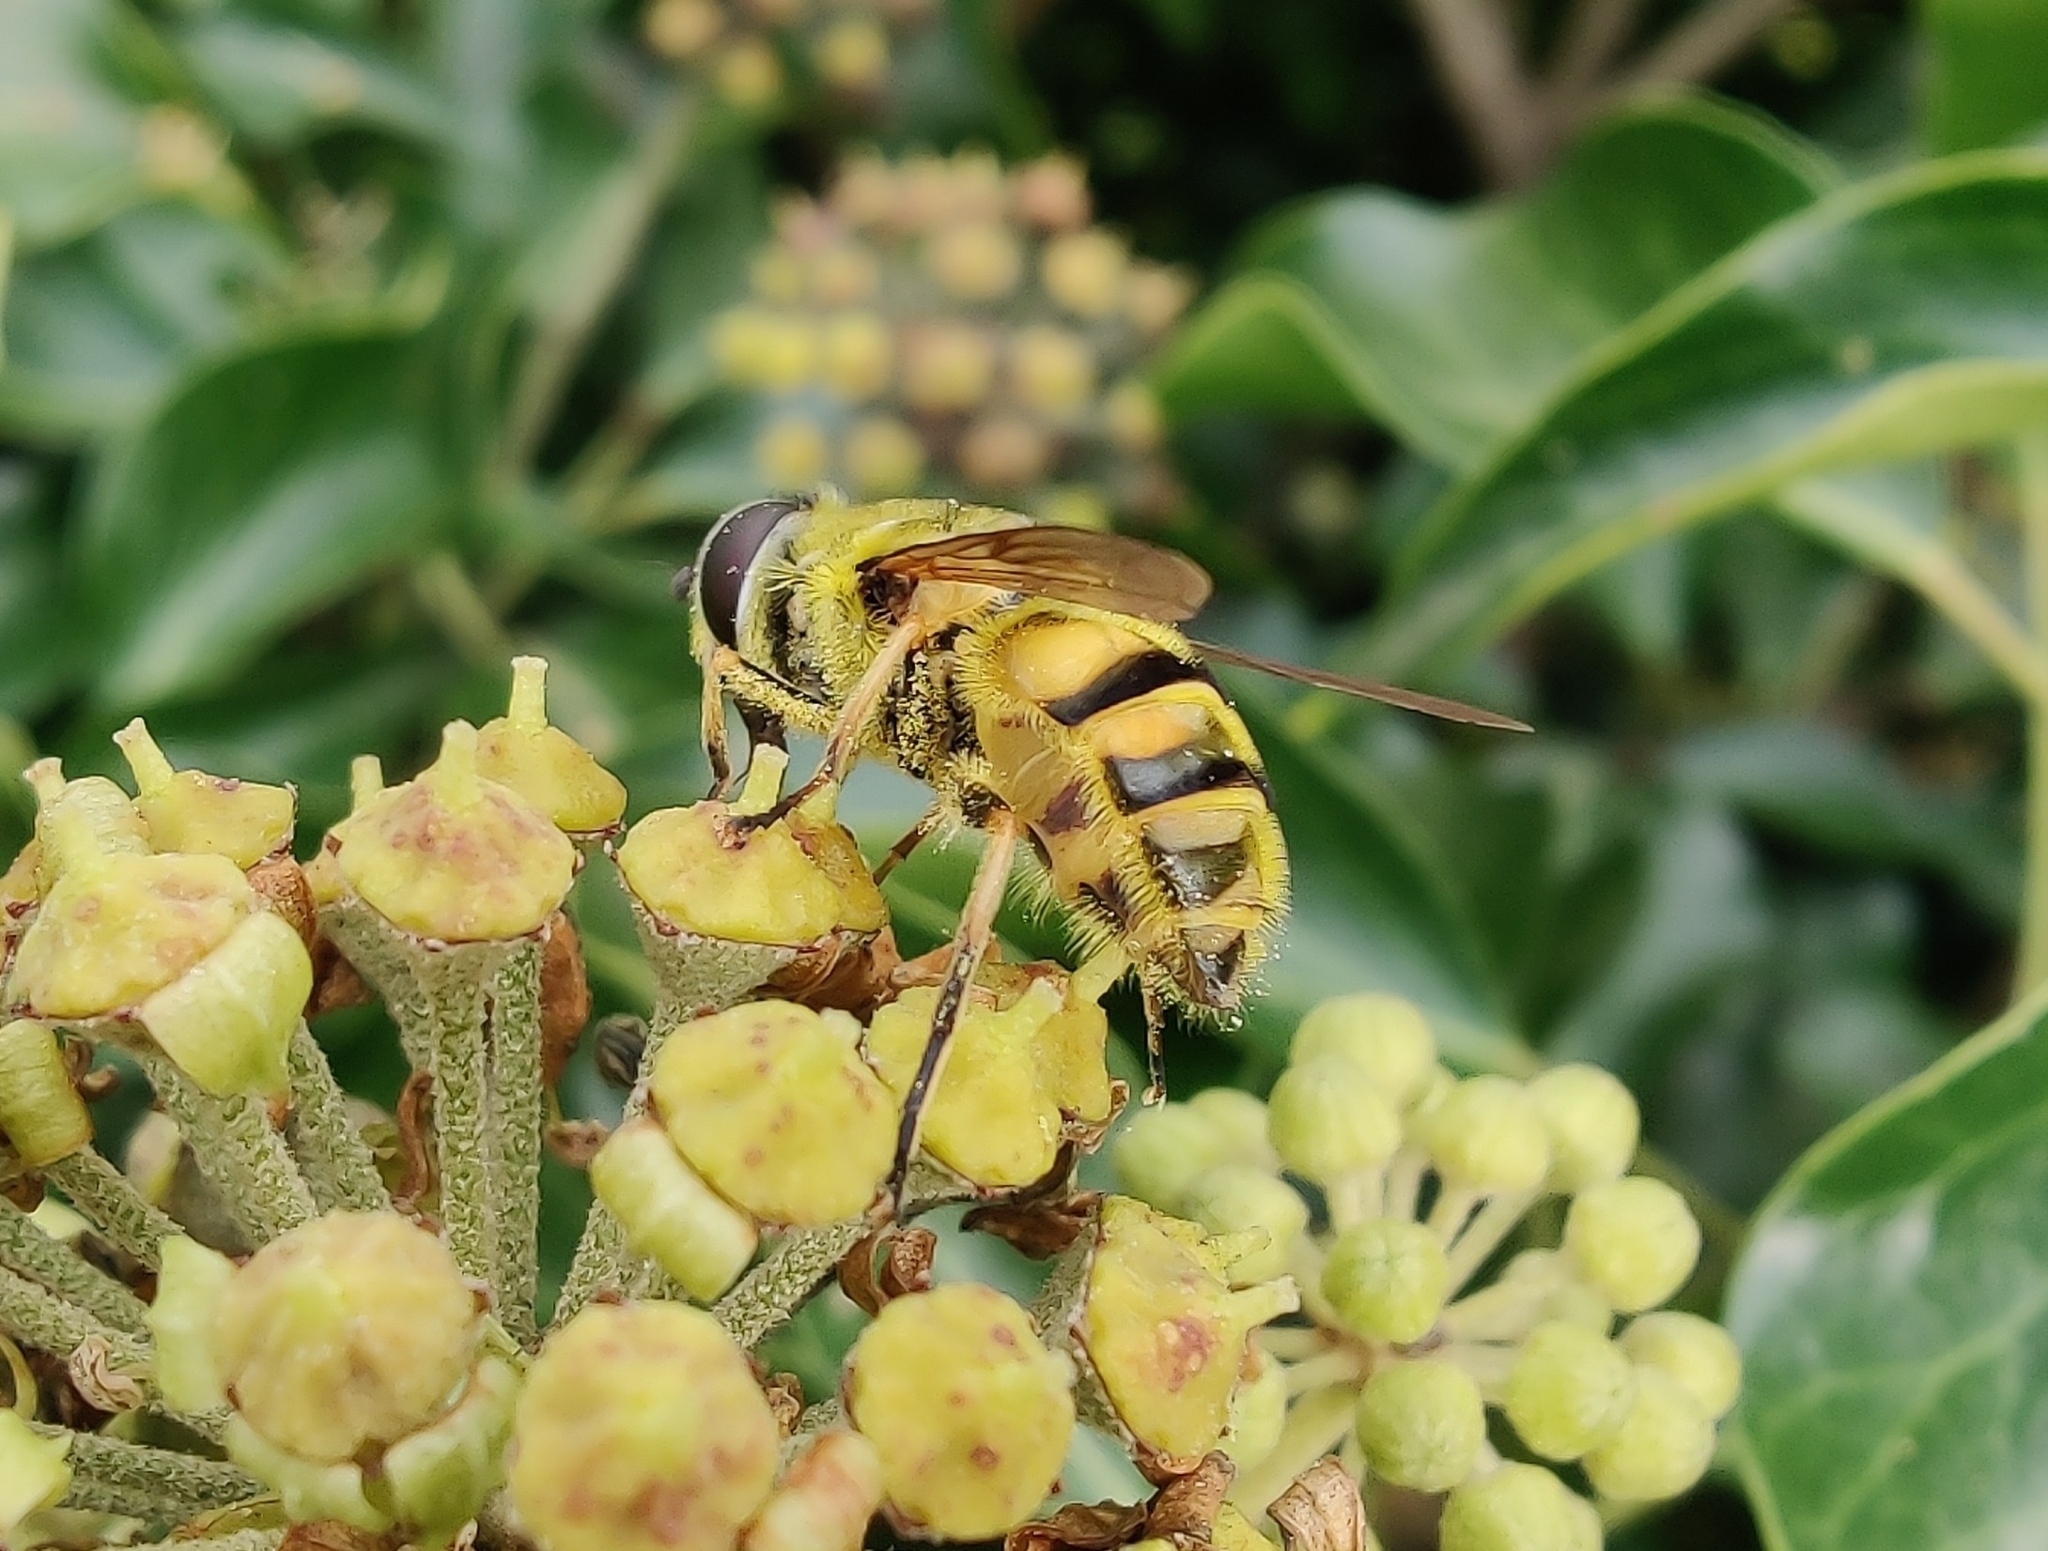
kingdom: Animalia
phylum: Arthropoda
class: Insecta
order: Diptera
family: Syrphidae
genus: Myathropa
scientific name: Myathropa florea
